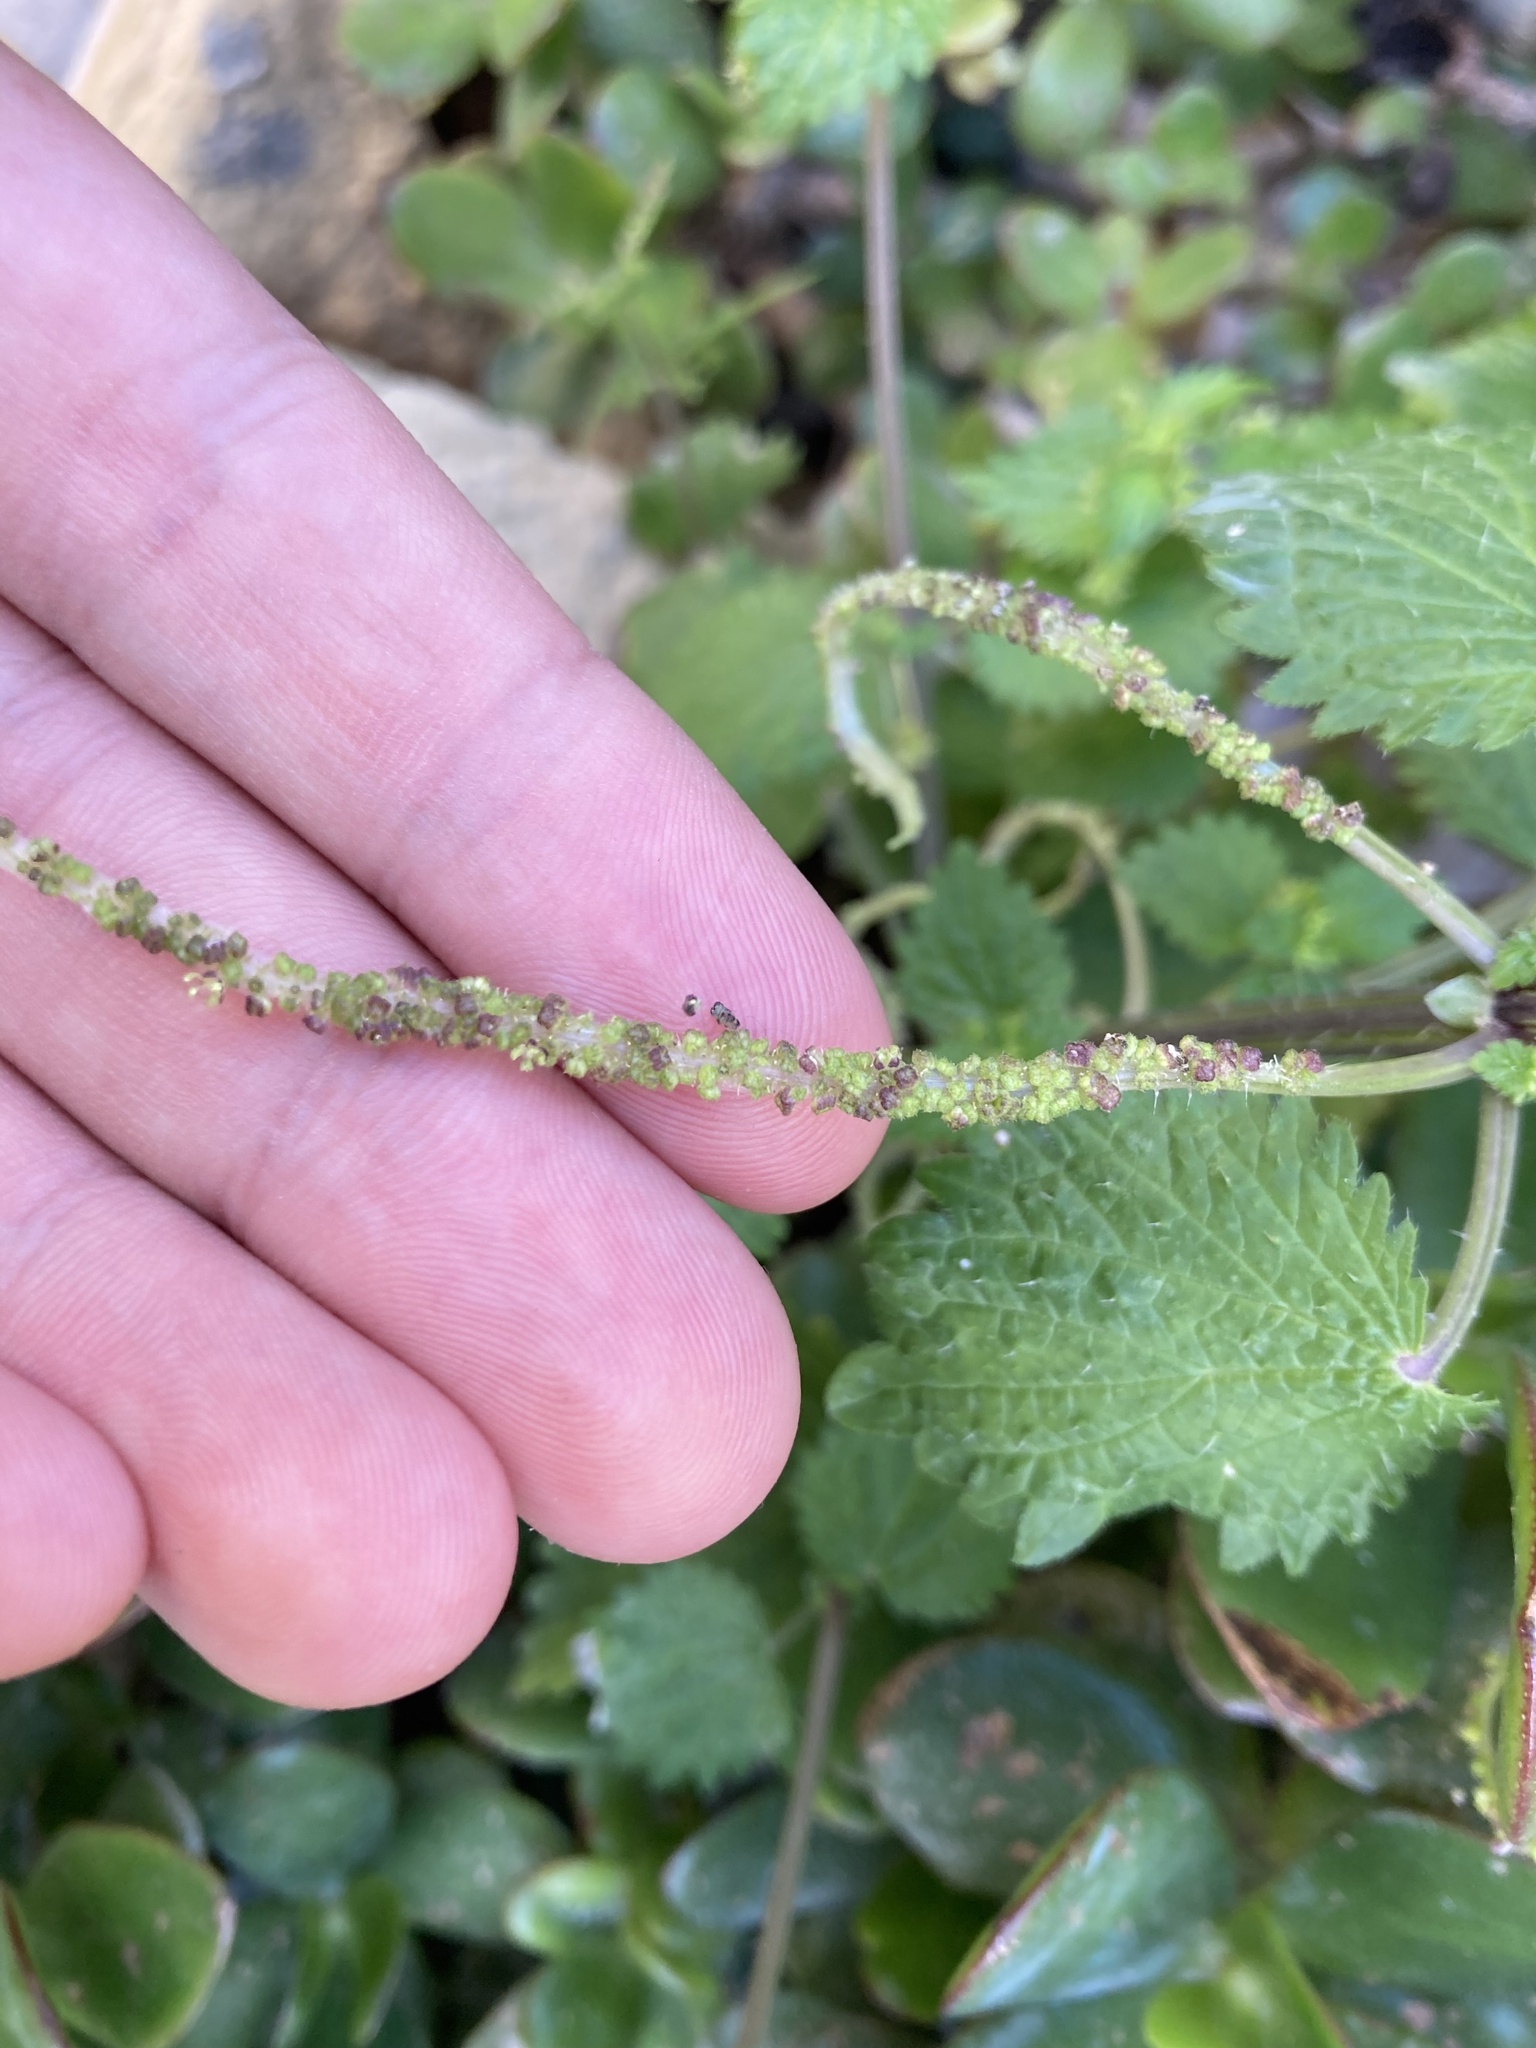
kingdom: Plantae
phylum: Tracheophyta
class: Magnoliopsida
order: Rosales
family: Urticaceae
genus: Urtica
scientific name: Urtica membranacea
